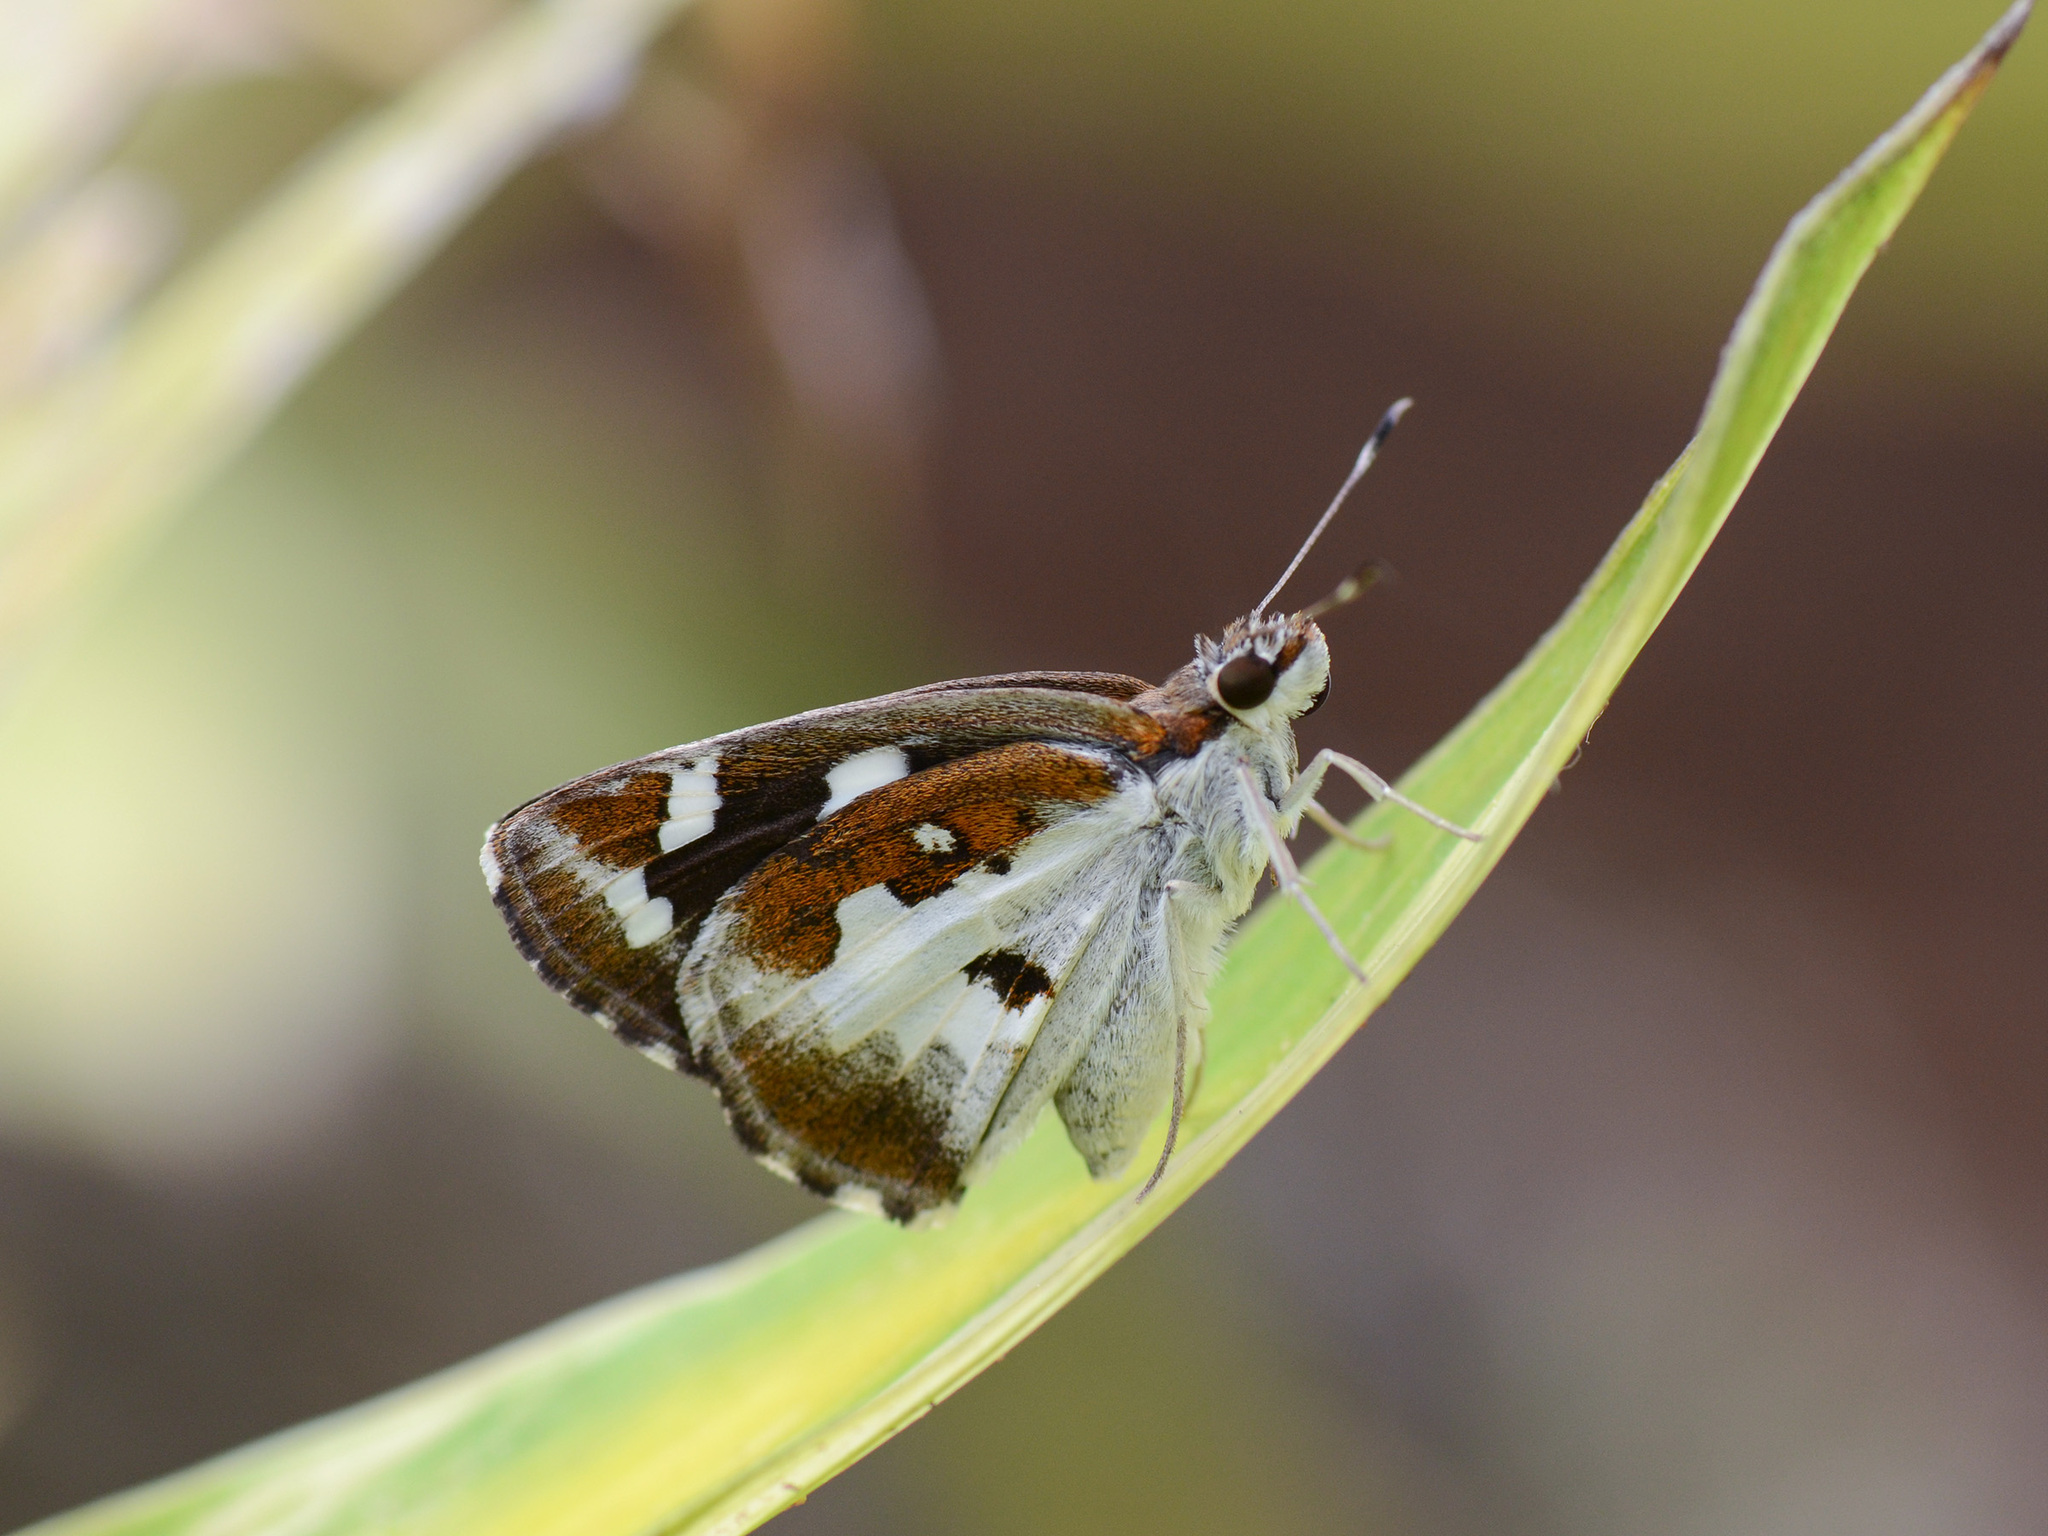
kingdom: Animalia
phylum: Arthropoda
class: Insecta
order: Lepidoptera
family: Hesperiidae
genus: Udaspes
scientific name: Udaspes folus
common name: Grass demon
